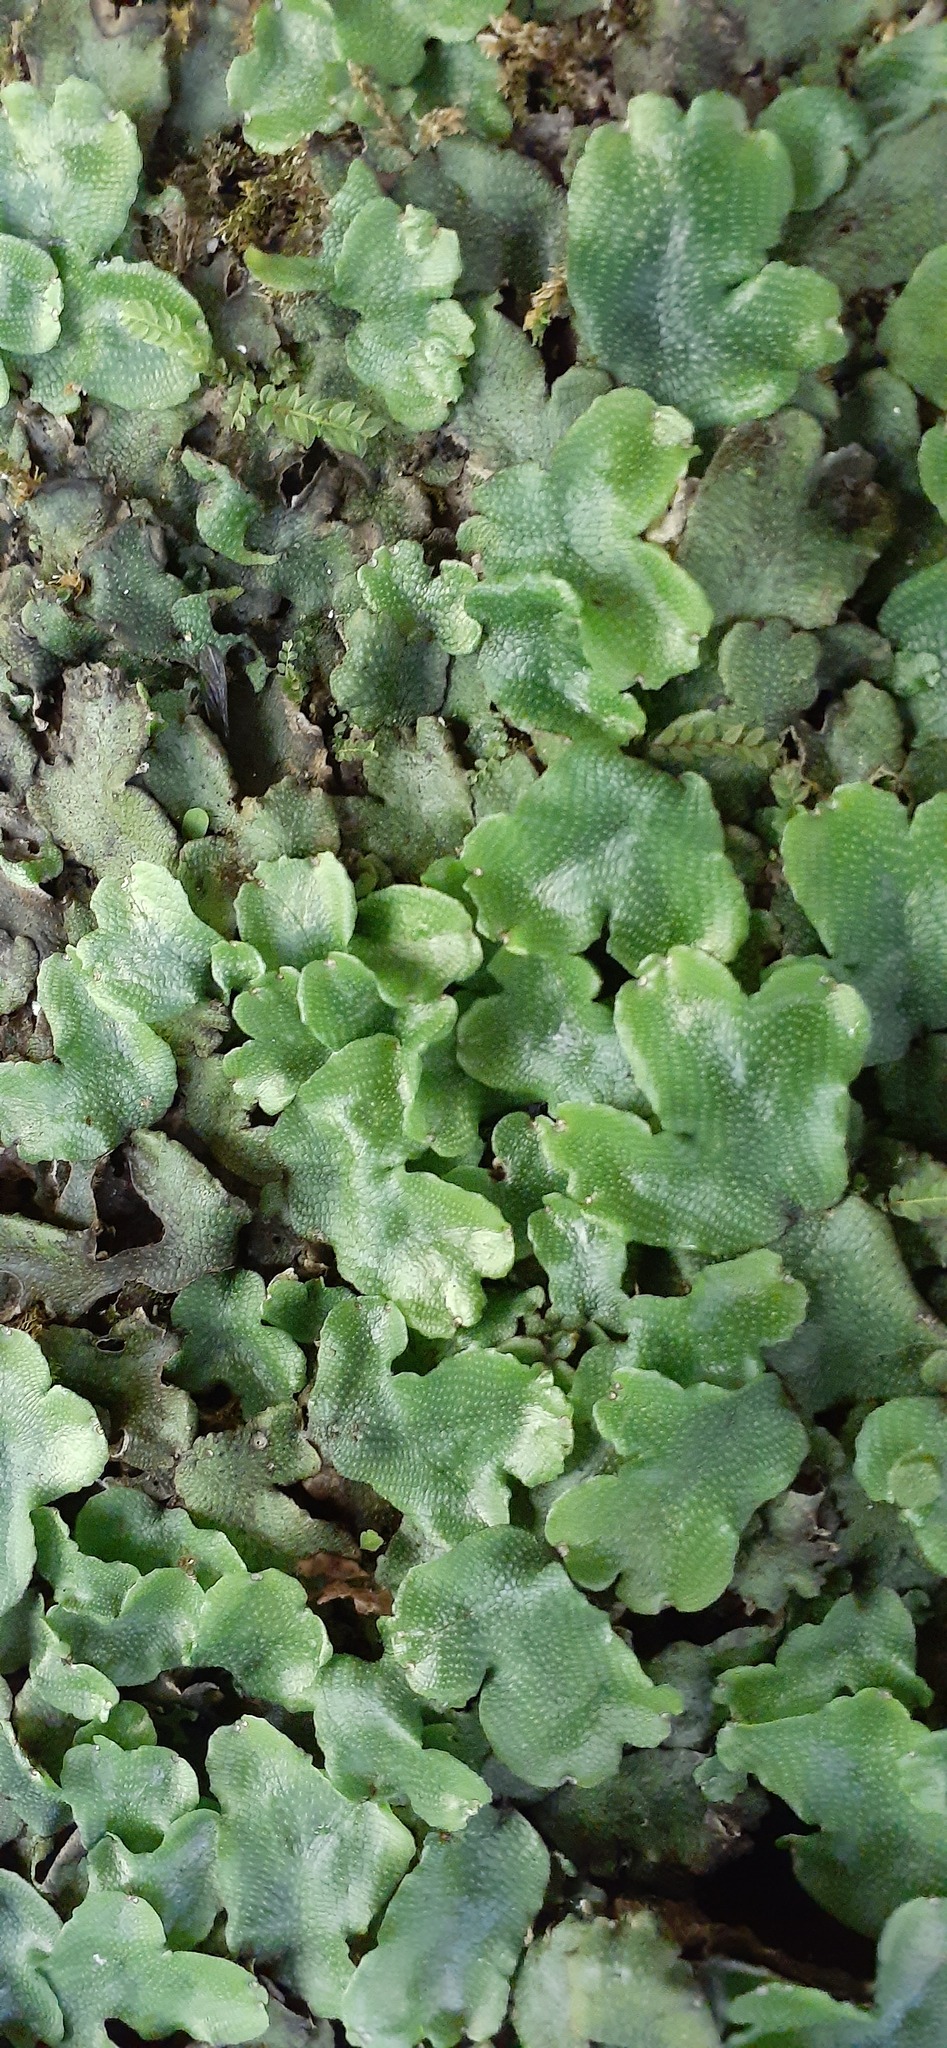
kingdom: Plantae
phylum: Marchantiophyta
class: Marchantiopsida
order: Marchantiales
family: Conocephalaceae
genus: Conocephalum
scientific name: Conocephalum conicum
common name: Great scented liverwort
